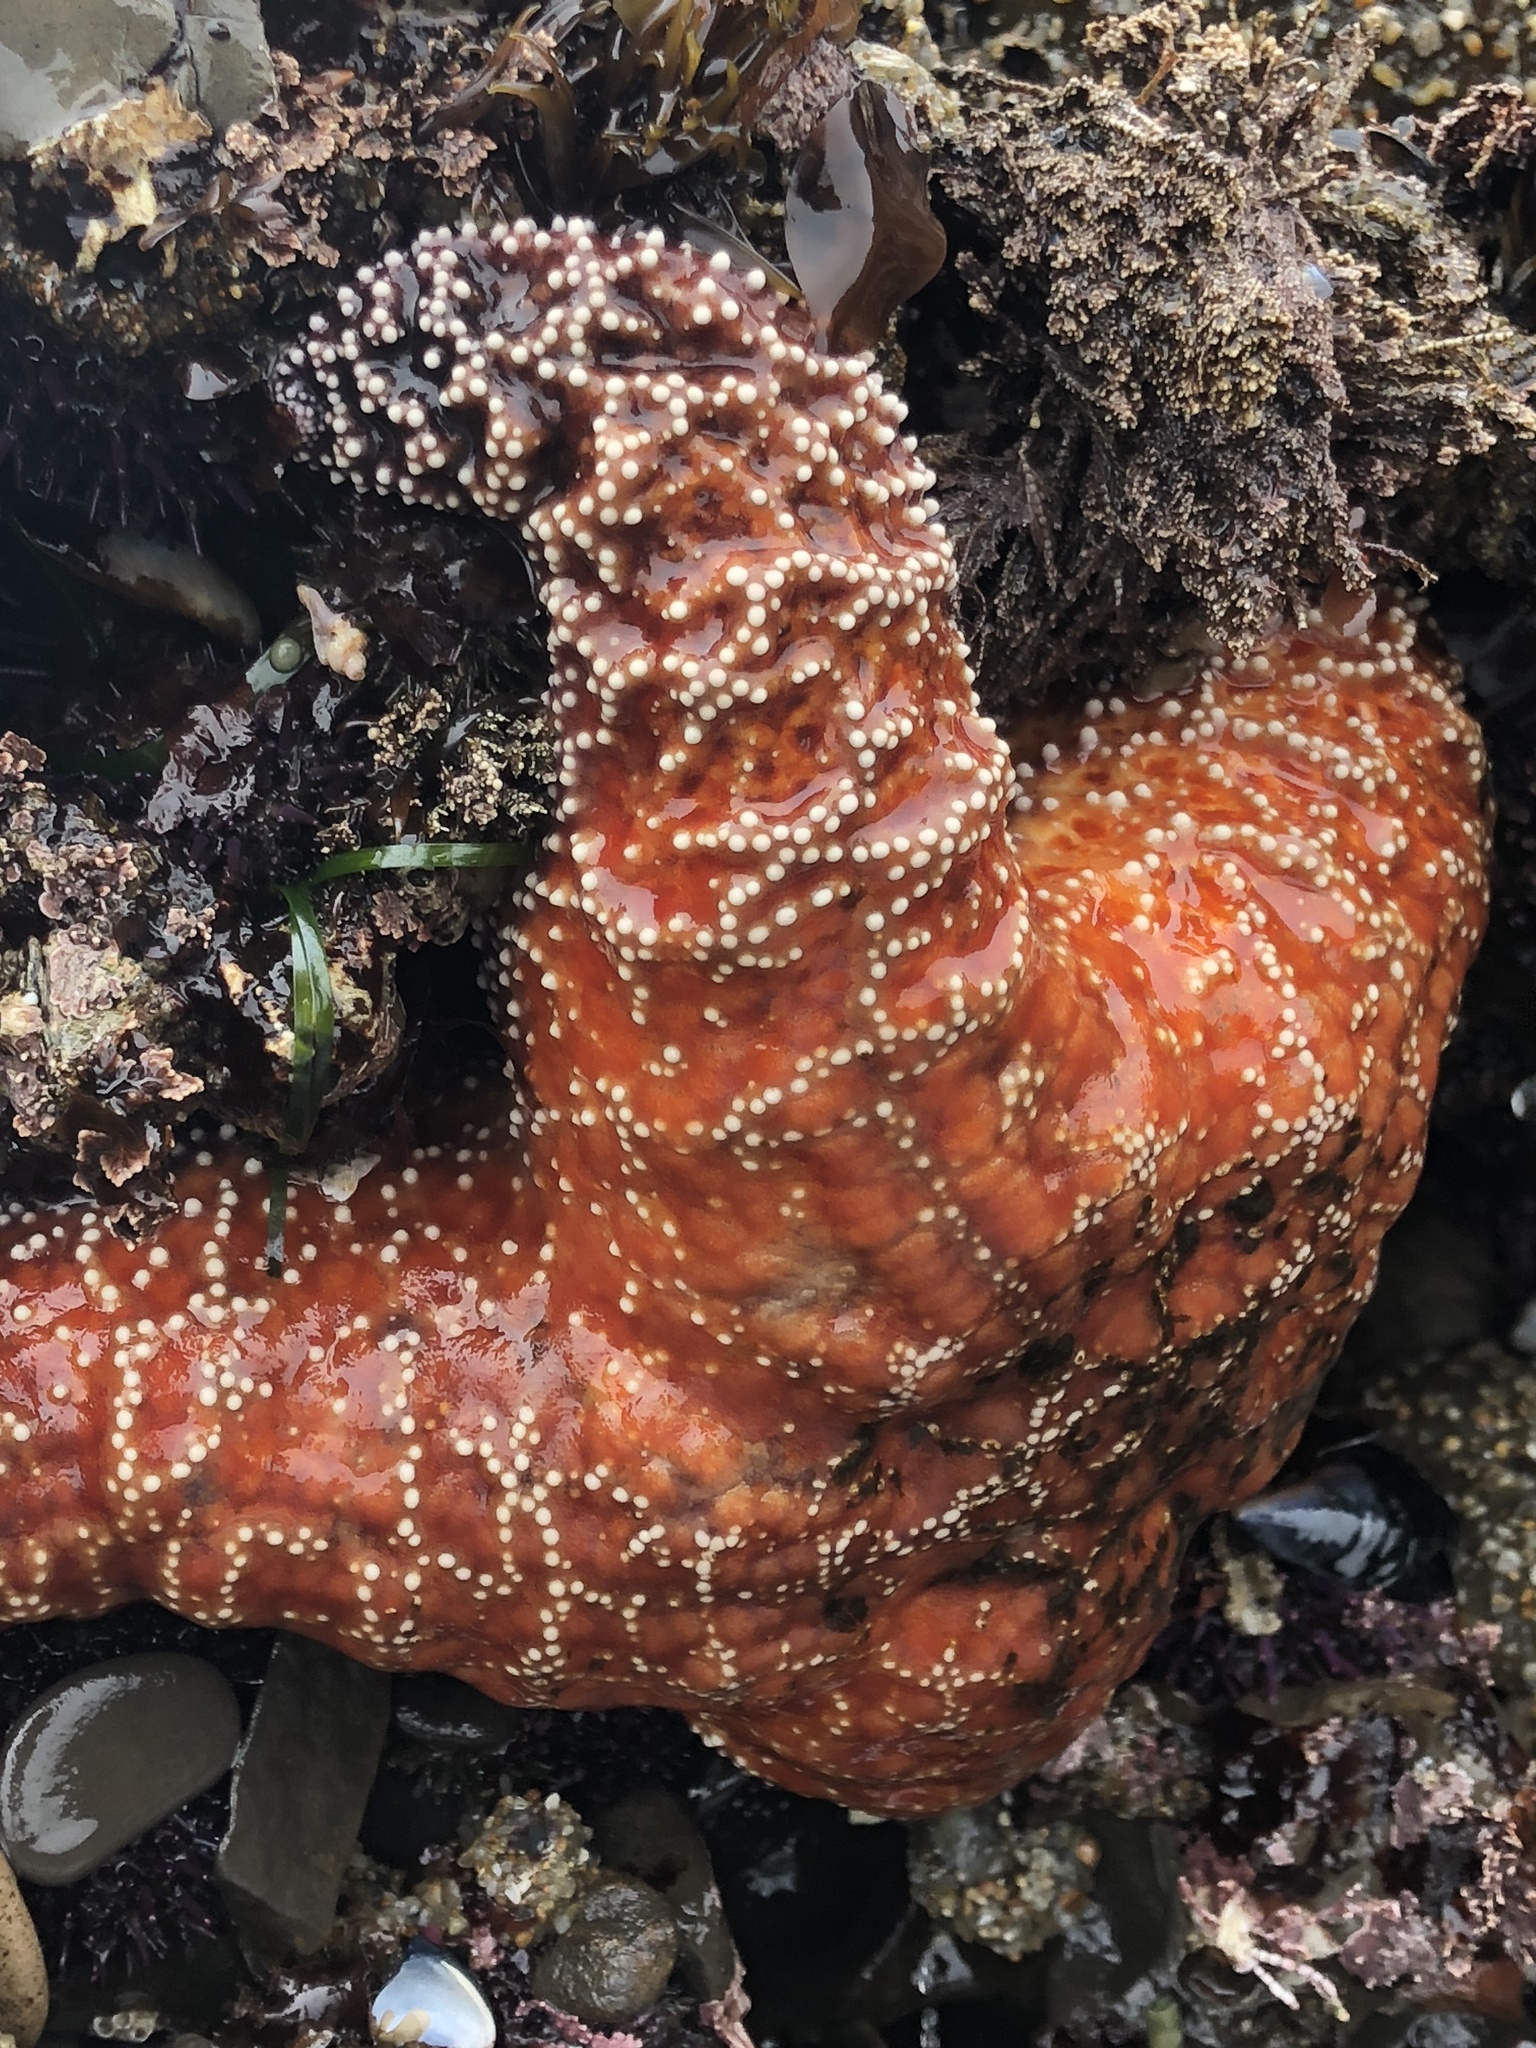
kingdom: Animalia
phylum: Echinodermata
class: Asteroidea
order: Forcipulatida
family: Asteriidae
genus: Pisaster
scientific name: Pisaster ochraceus
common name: Ochre stars
